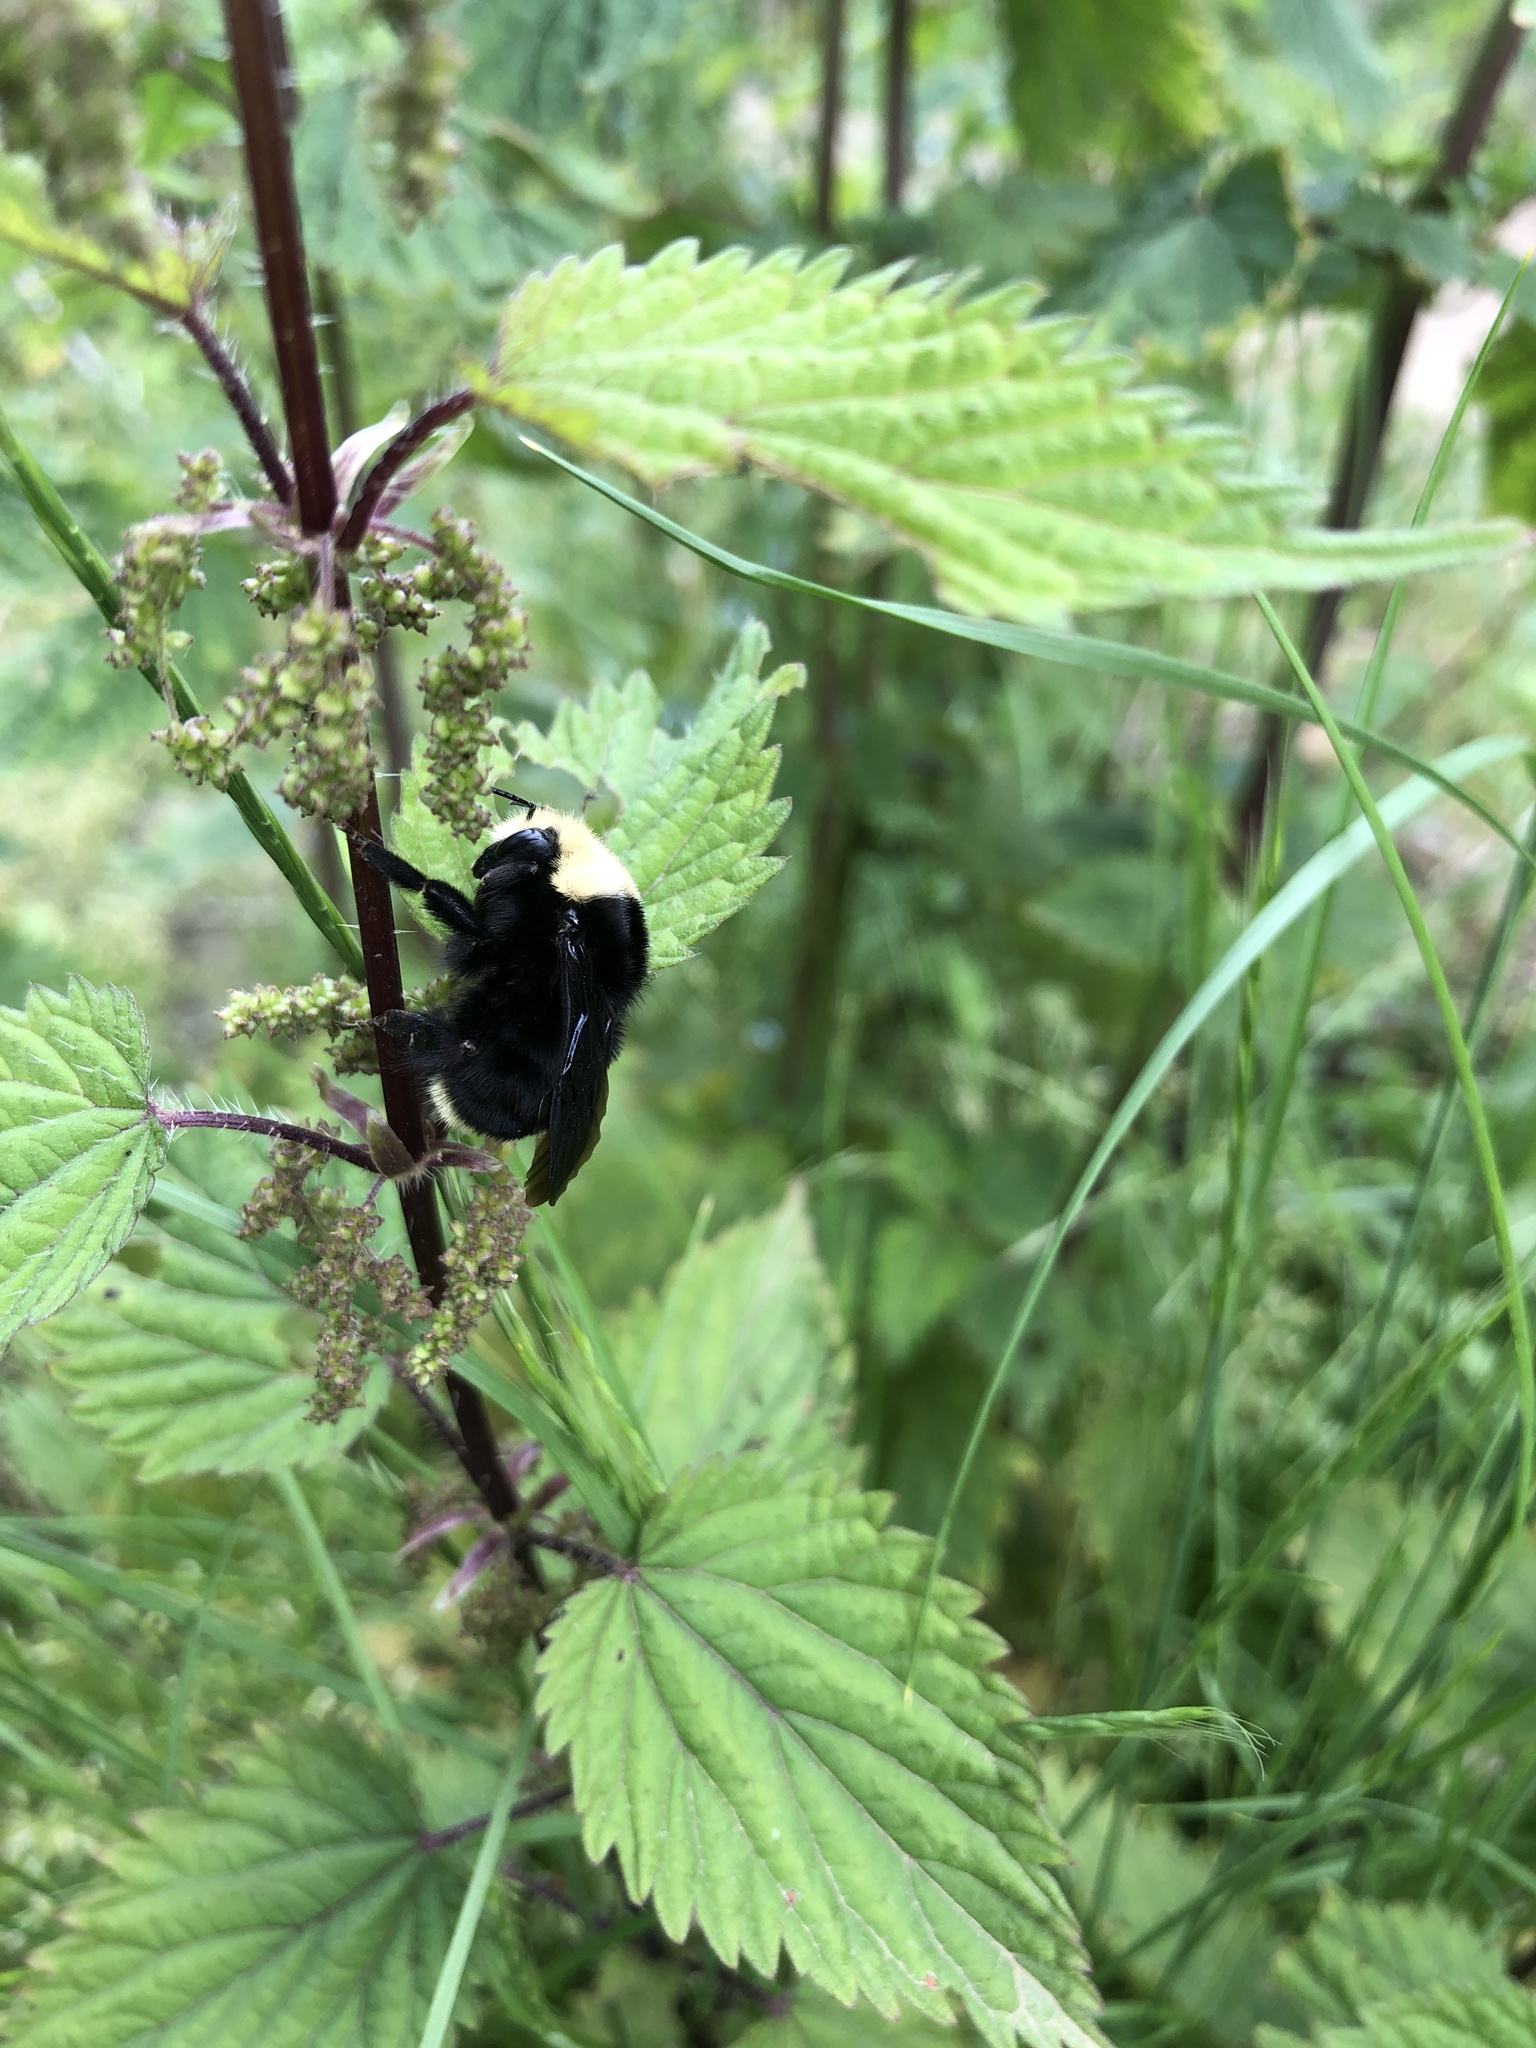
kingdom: Animalia
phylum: Arthropoda
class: Insecta
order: Hymenoptera
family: Apidae
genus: Bombus
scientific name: Bombus vosnesenskii
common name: Vosnesensky bumble bee
